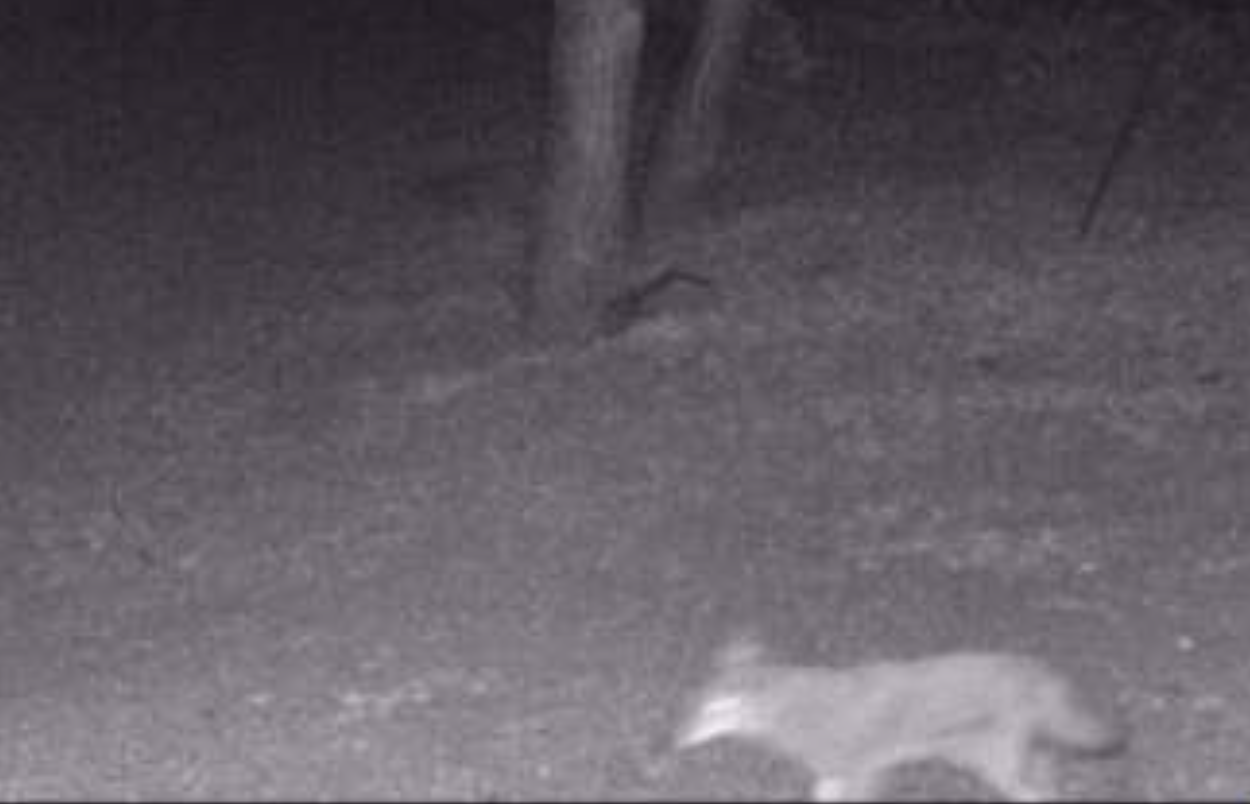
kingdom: Animalia
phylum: Chordata
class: Mammalia
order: Carnivora
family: Canidae
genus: Canis
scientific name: Canis latrans
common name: Coyote
